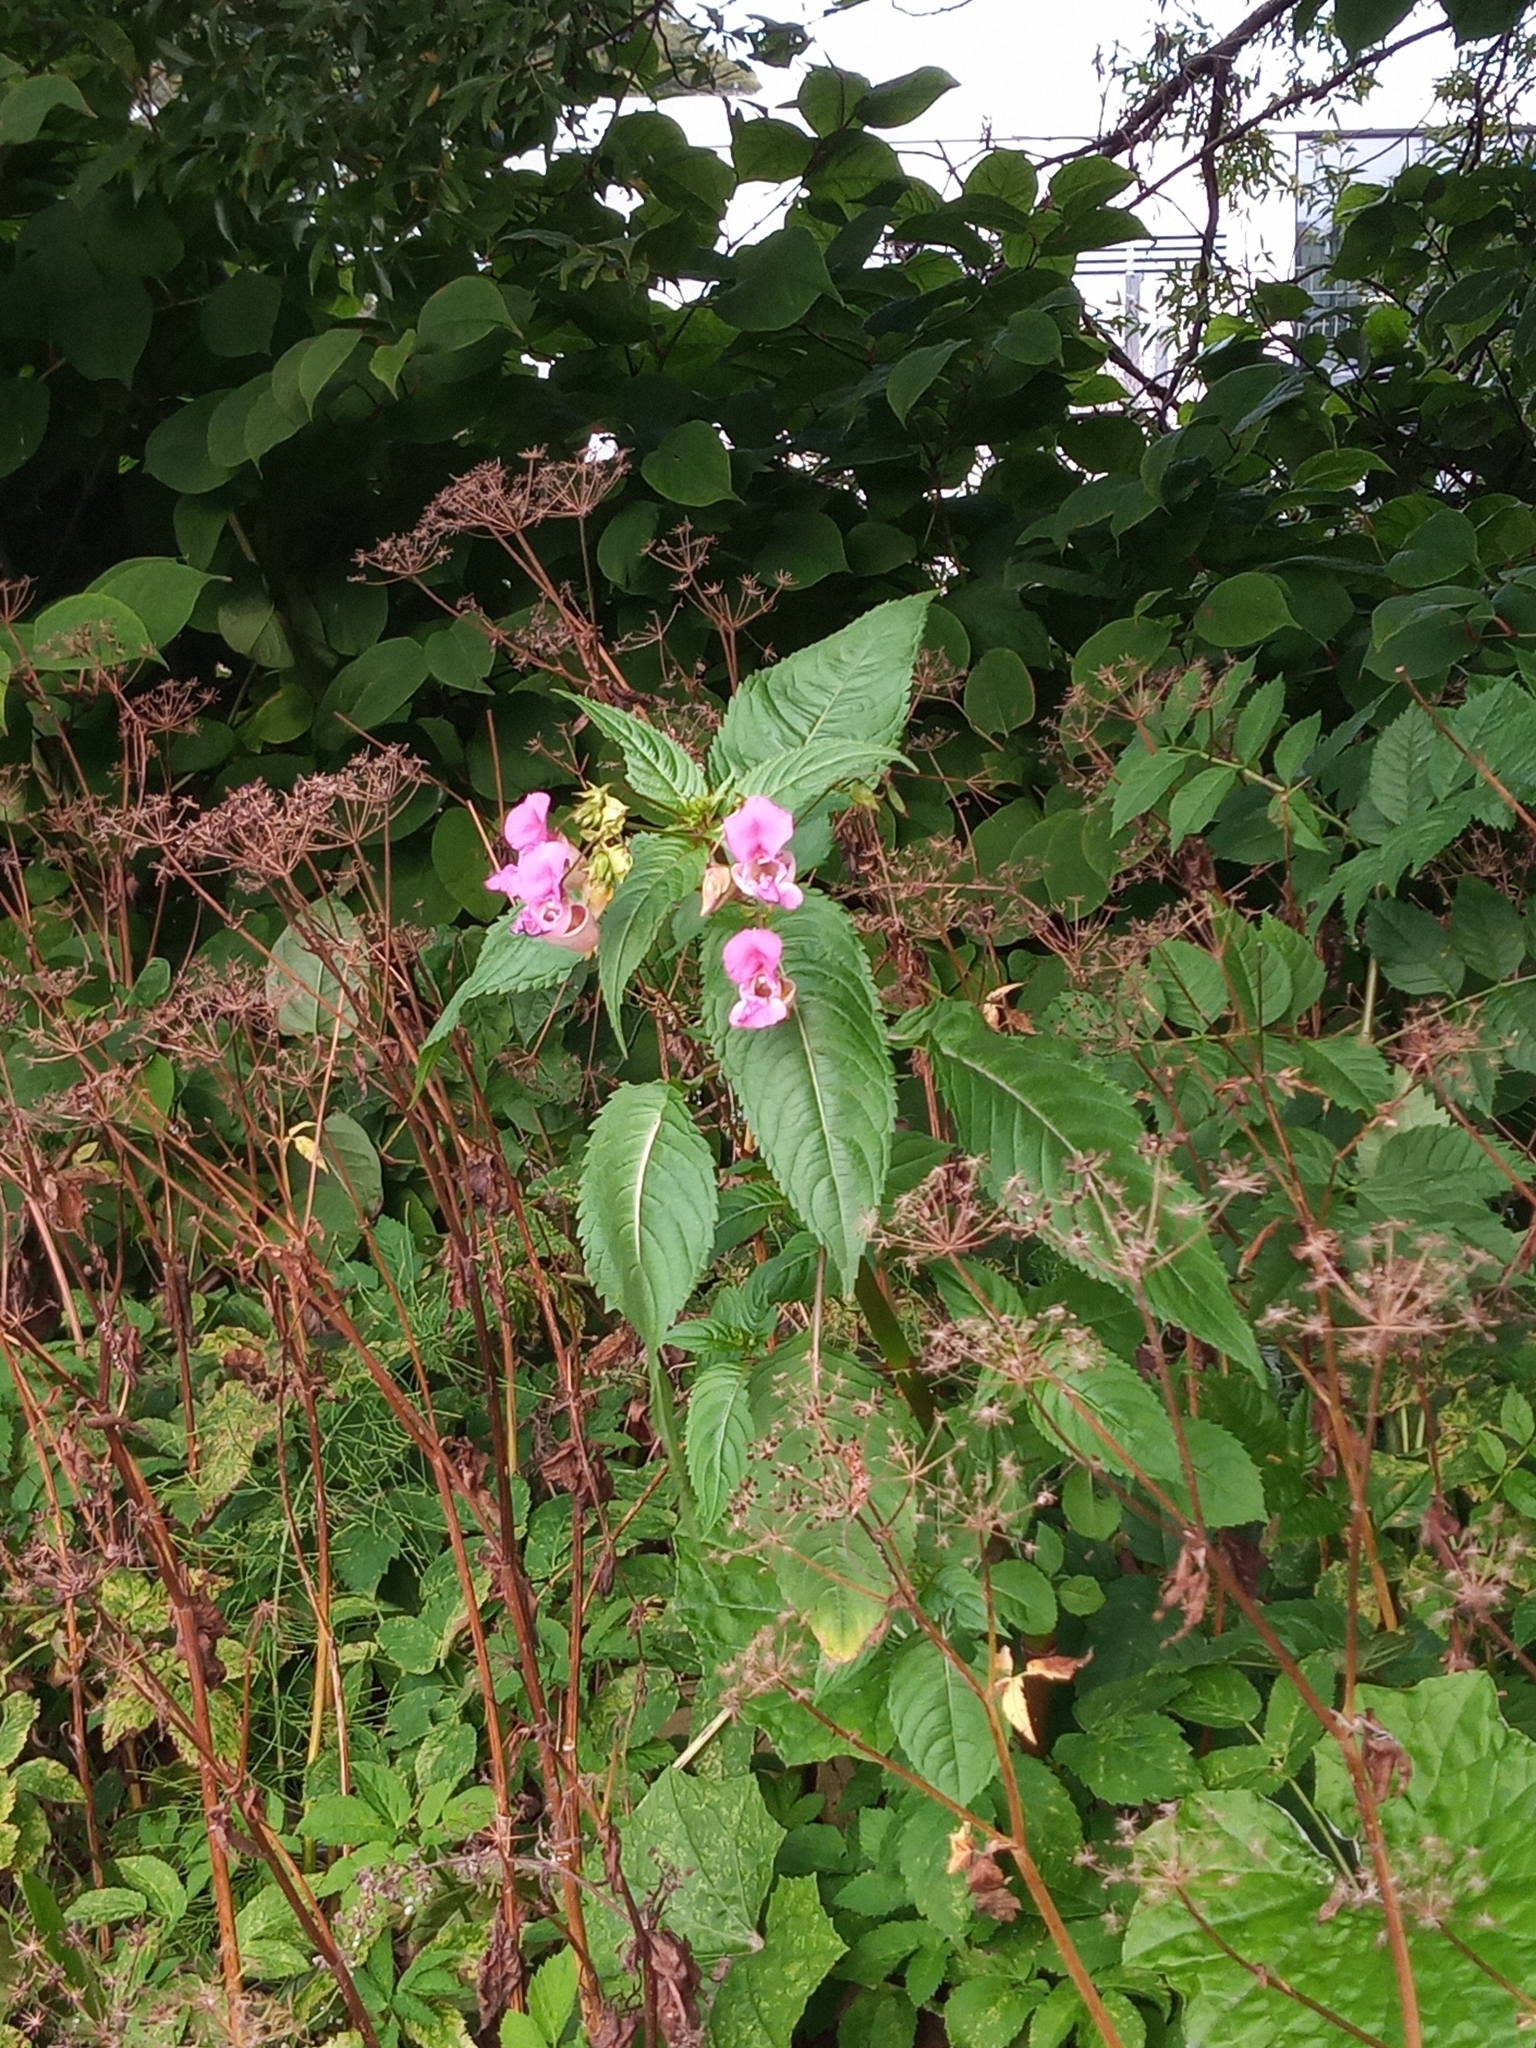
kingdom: Plantae
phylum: Tracheophyta
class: Magnoliopsida
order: Ericales
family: Balsaminaceae
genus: Impatiens
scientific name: Impatiens glandulifera
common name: Himalayan balsam
